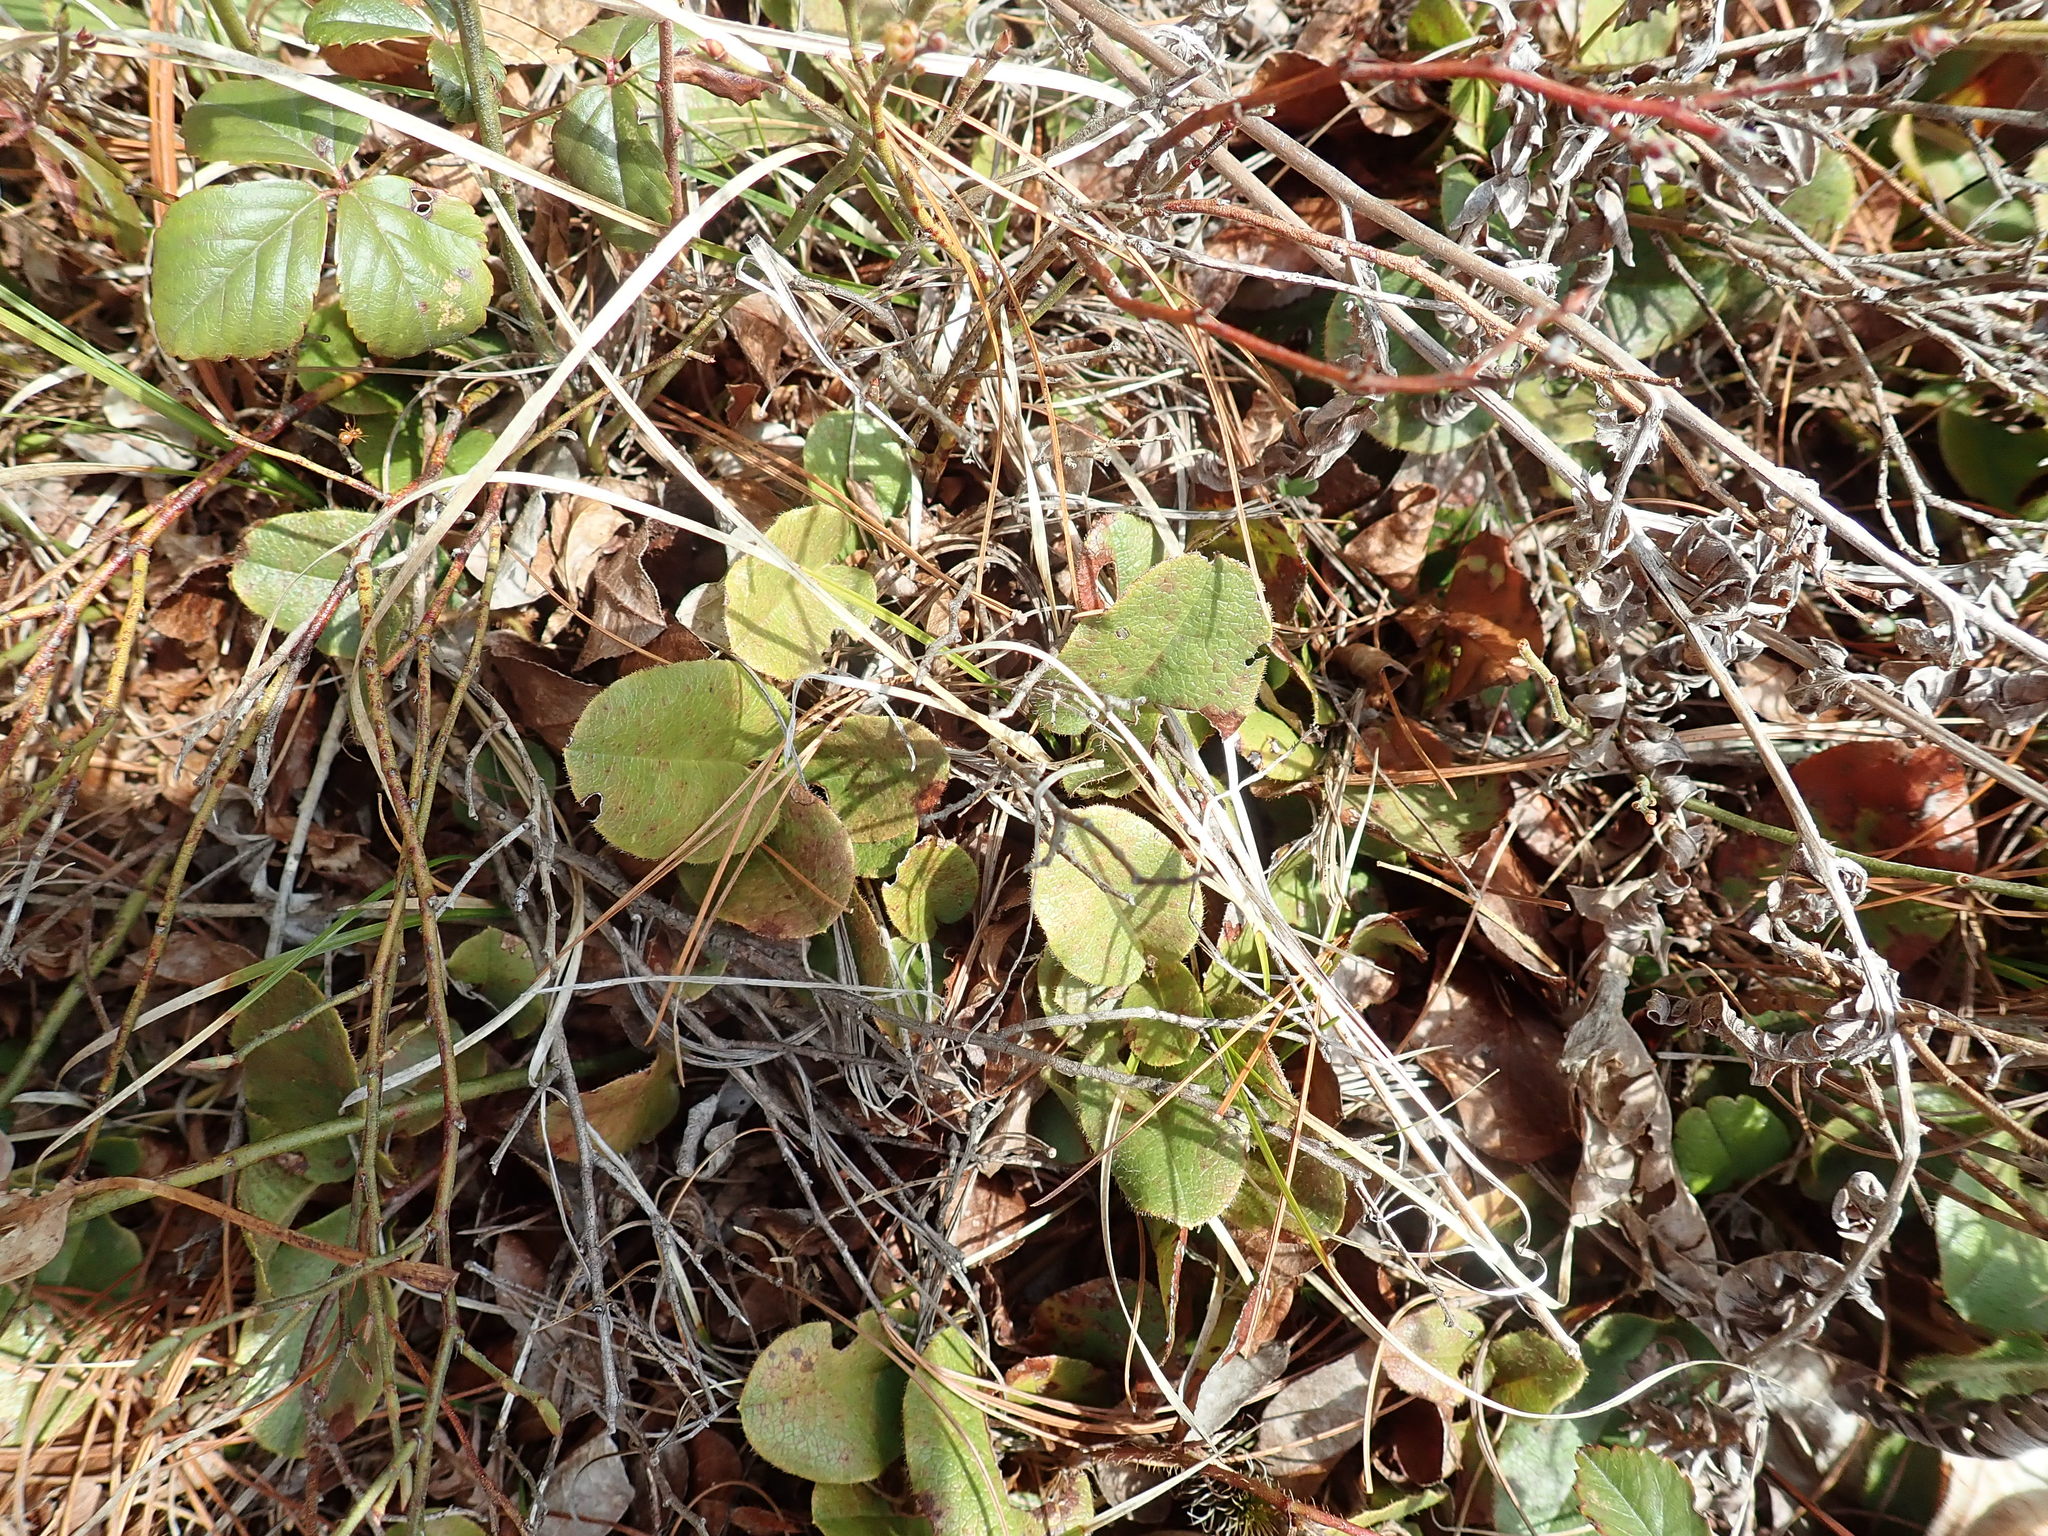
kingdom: Plantae
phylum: Tracheophyta
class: Magnoliopsida
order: Ericales
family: Ericaceae
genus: Epigaea
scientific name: Epigaea repens
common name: Gravelroot
